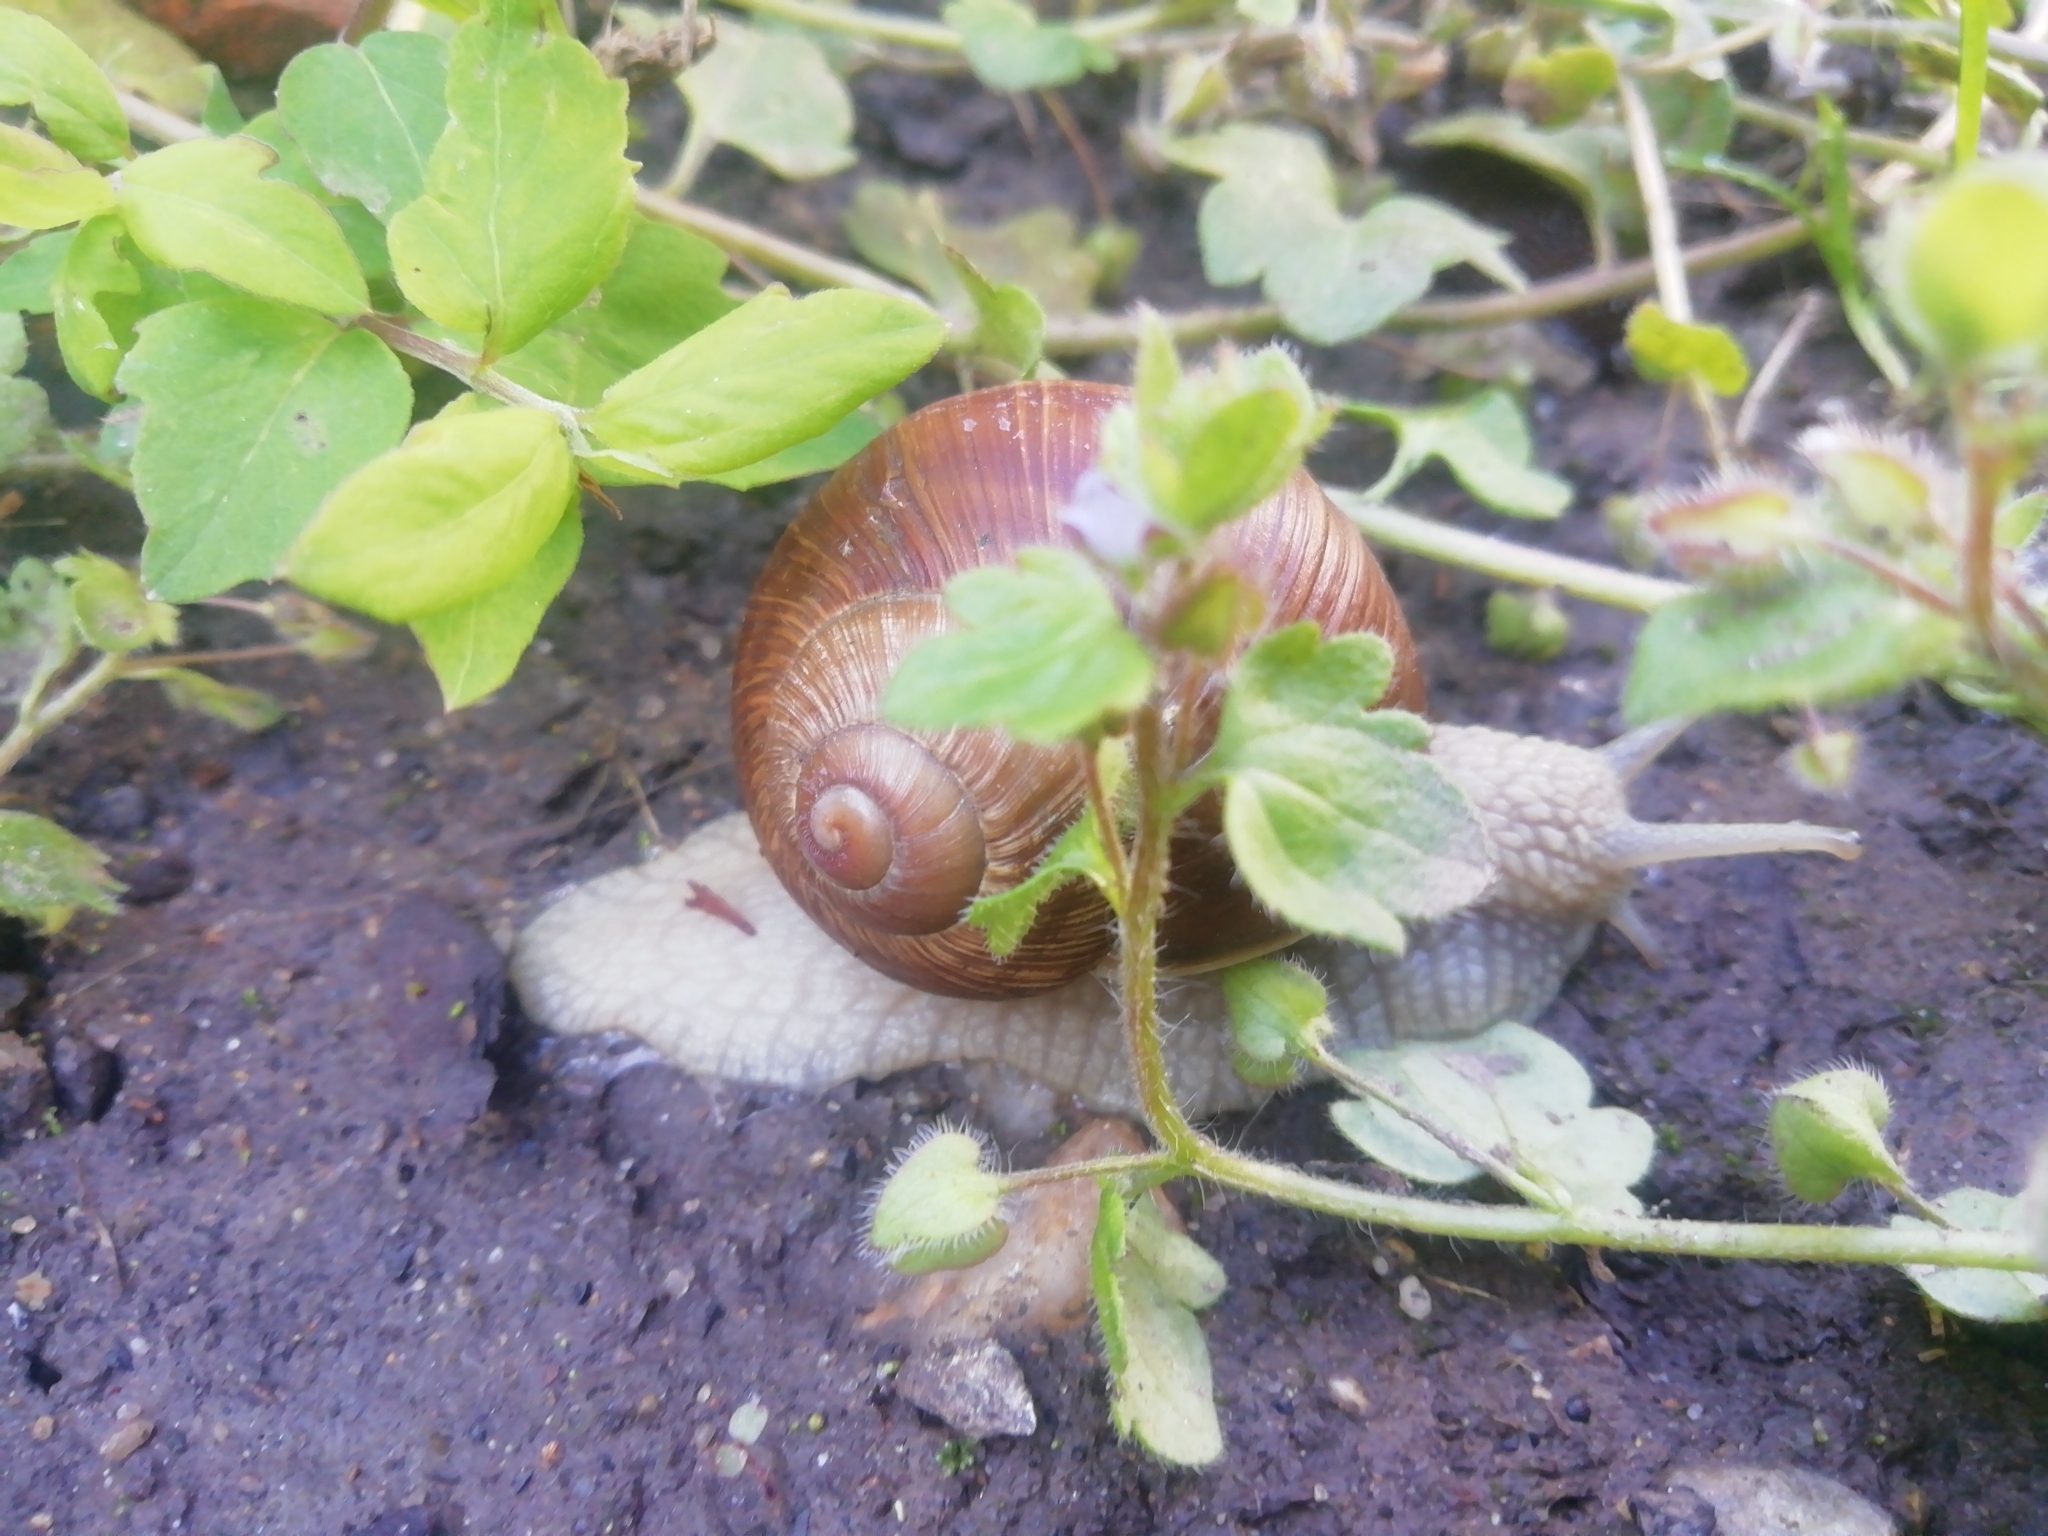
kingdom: Animalia
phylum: Mollusca
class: Gastropoda
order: Stylommatophora
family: Helicidae
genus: Helix
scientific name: Helix pomatia
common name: Roman snail
